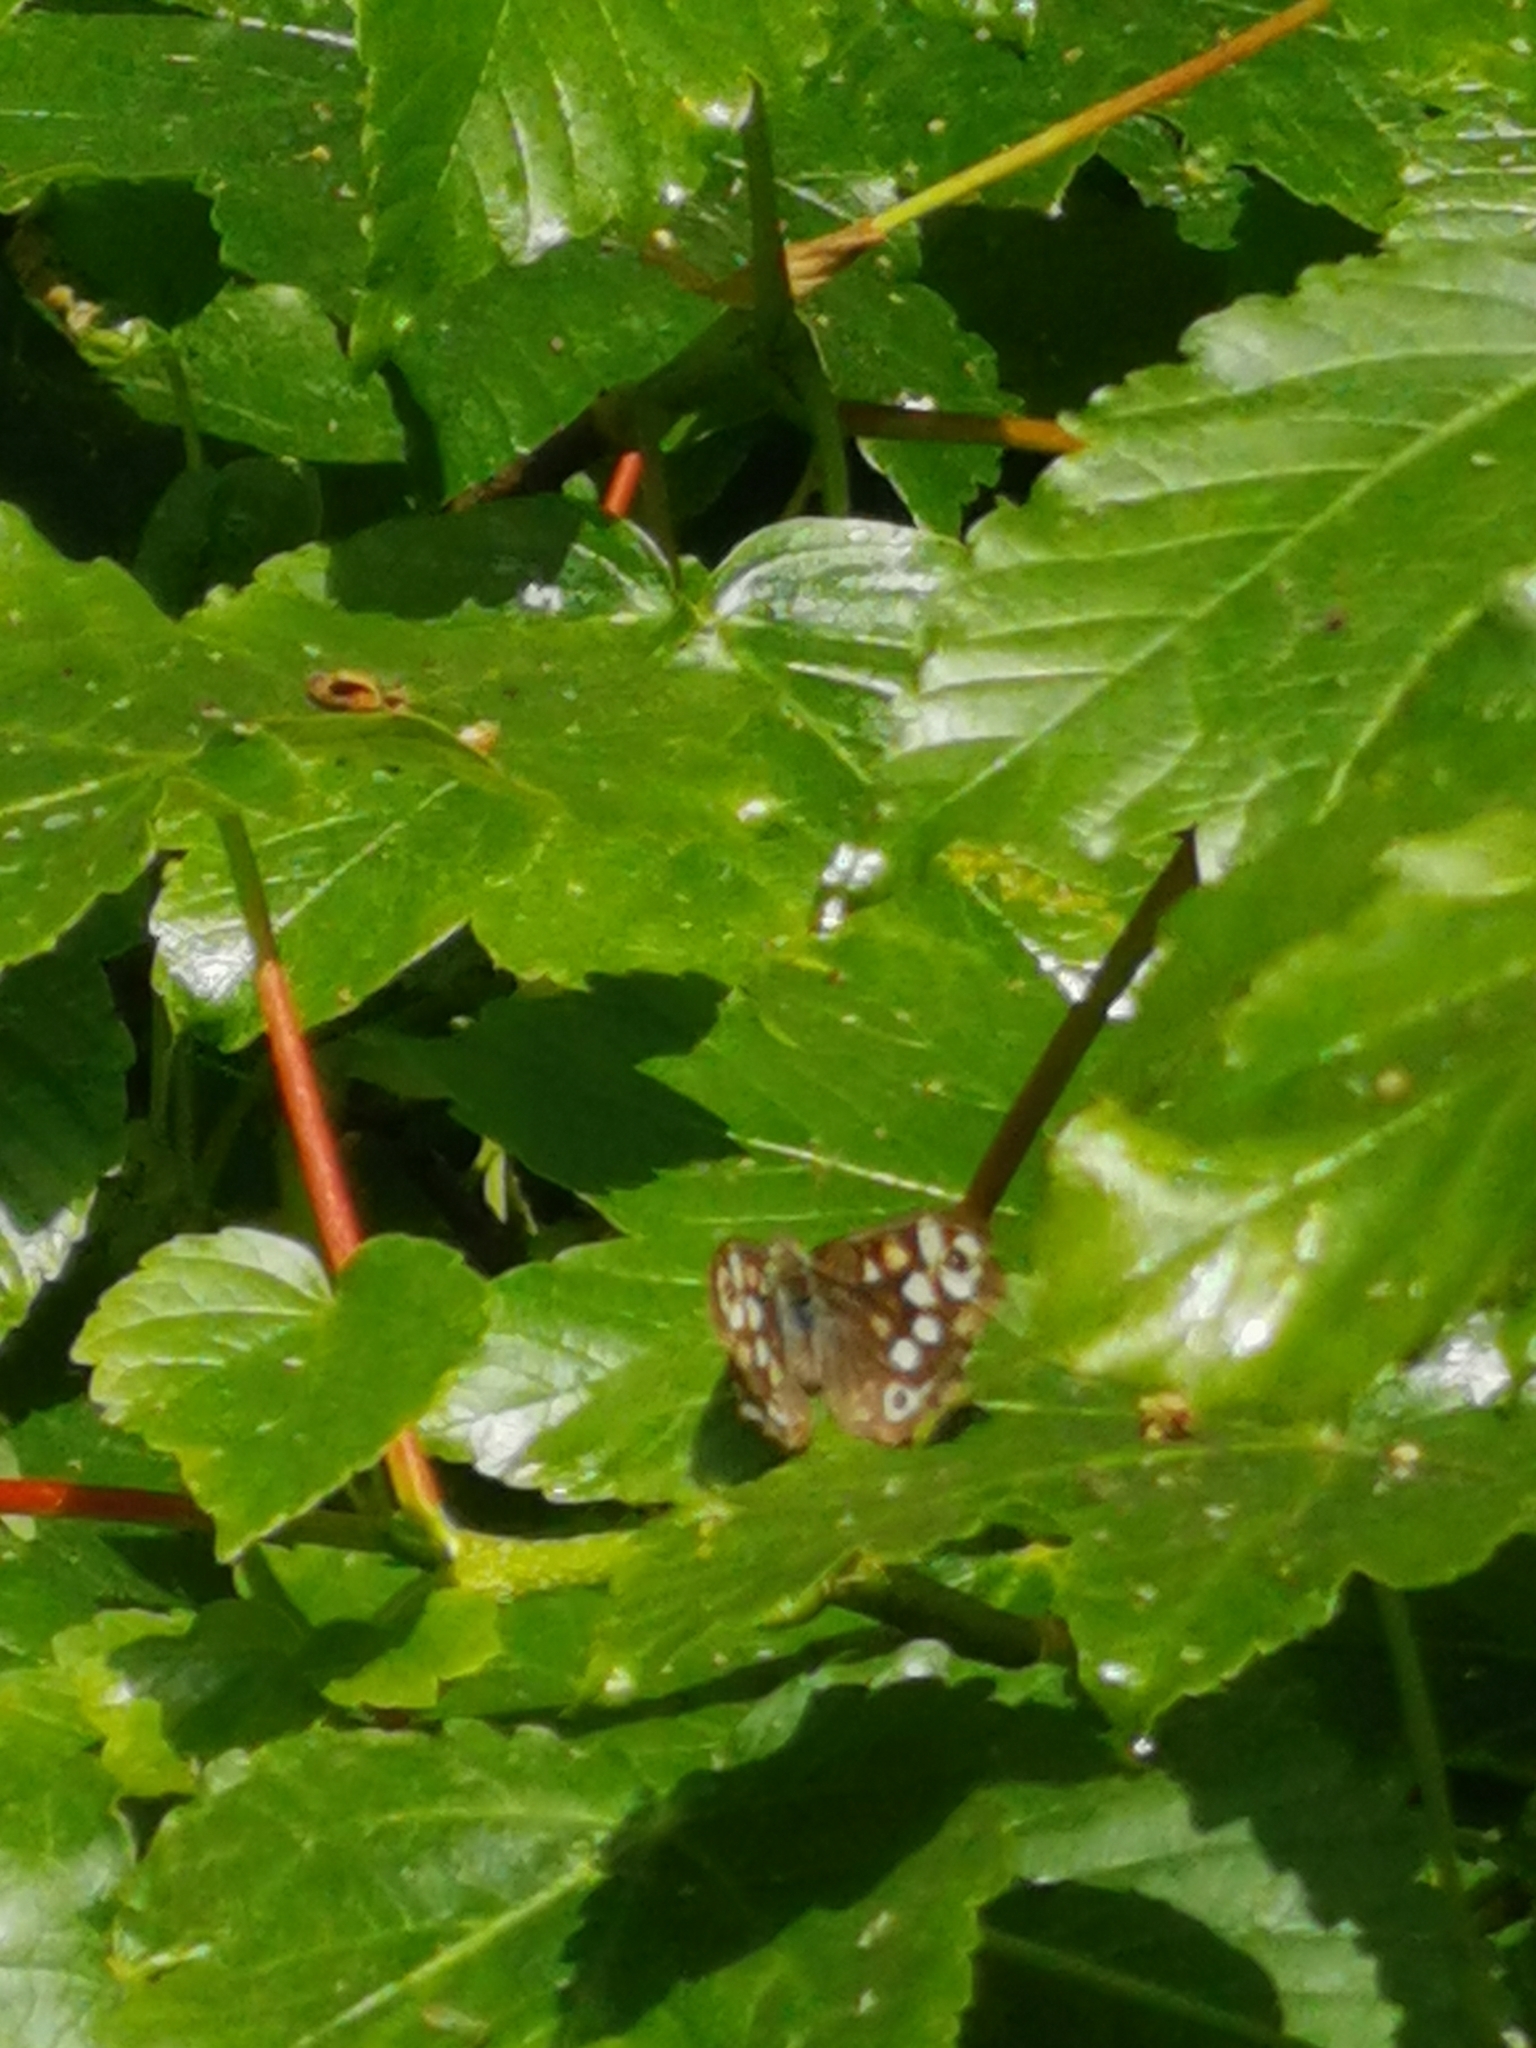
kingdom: Animalia
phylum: Arthropoda
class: Insecta
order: Lepidoptera
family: Nymphalidae
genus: Pararge
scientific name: Pararge aegeria
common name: Speckled wood
